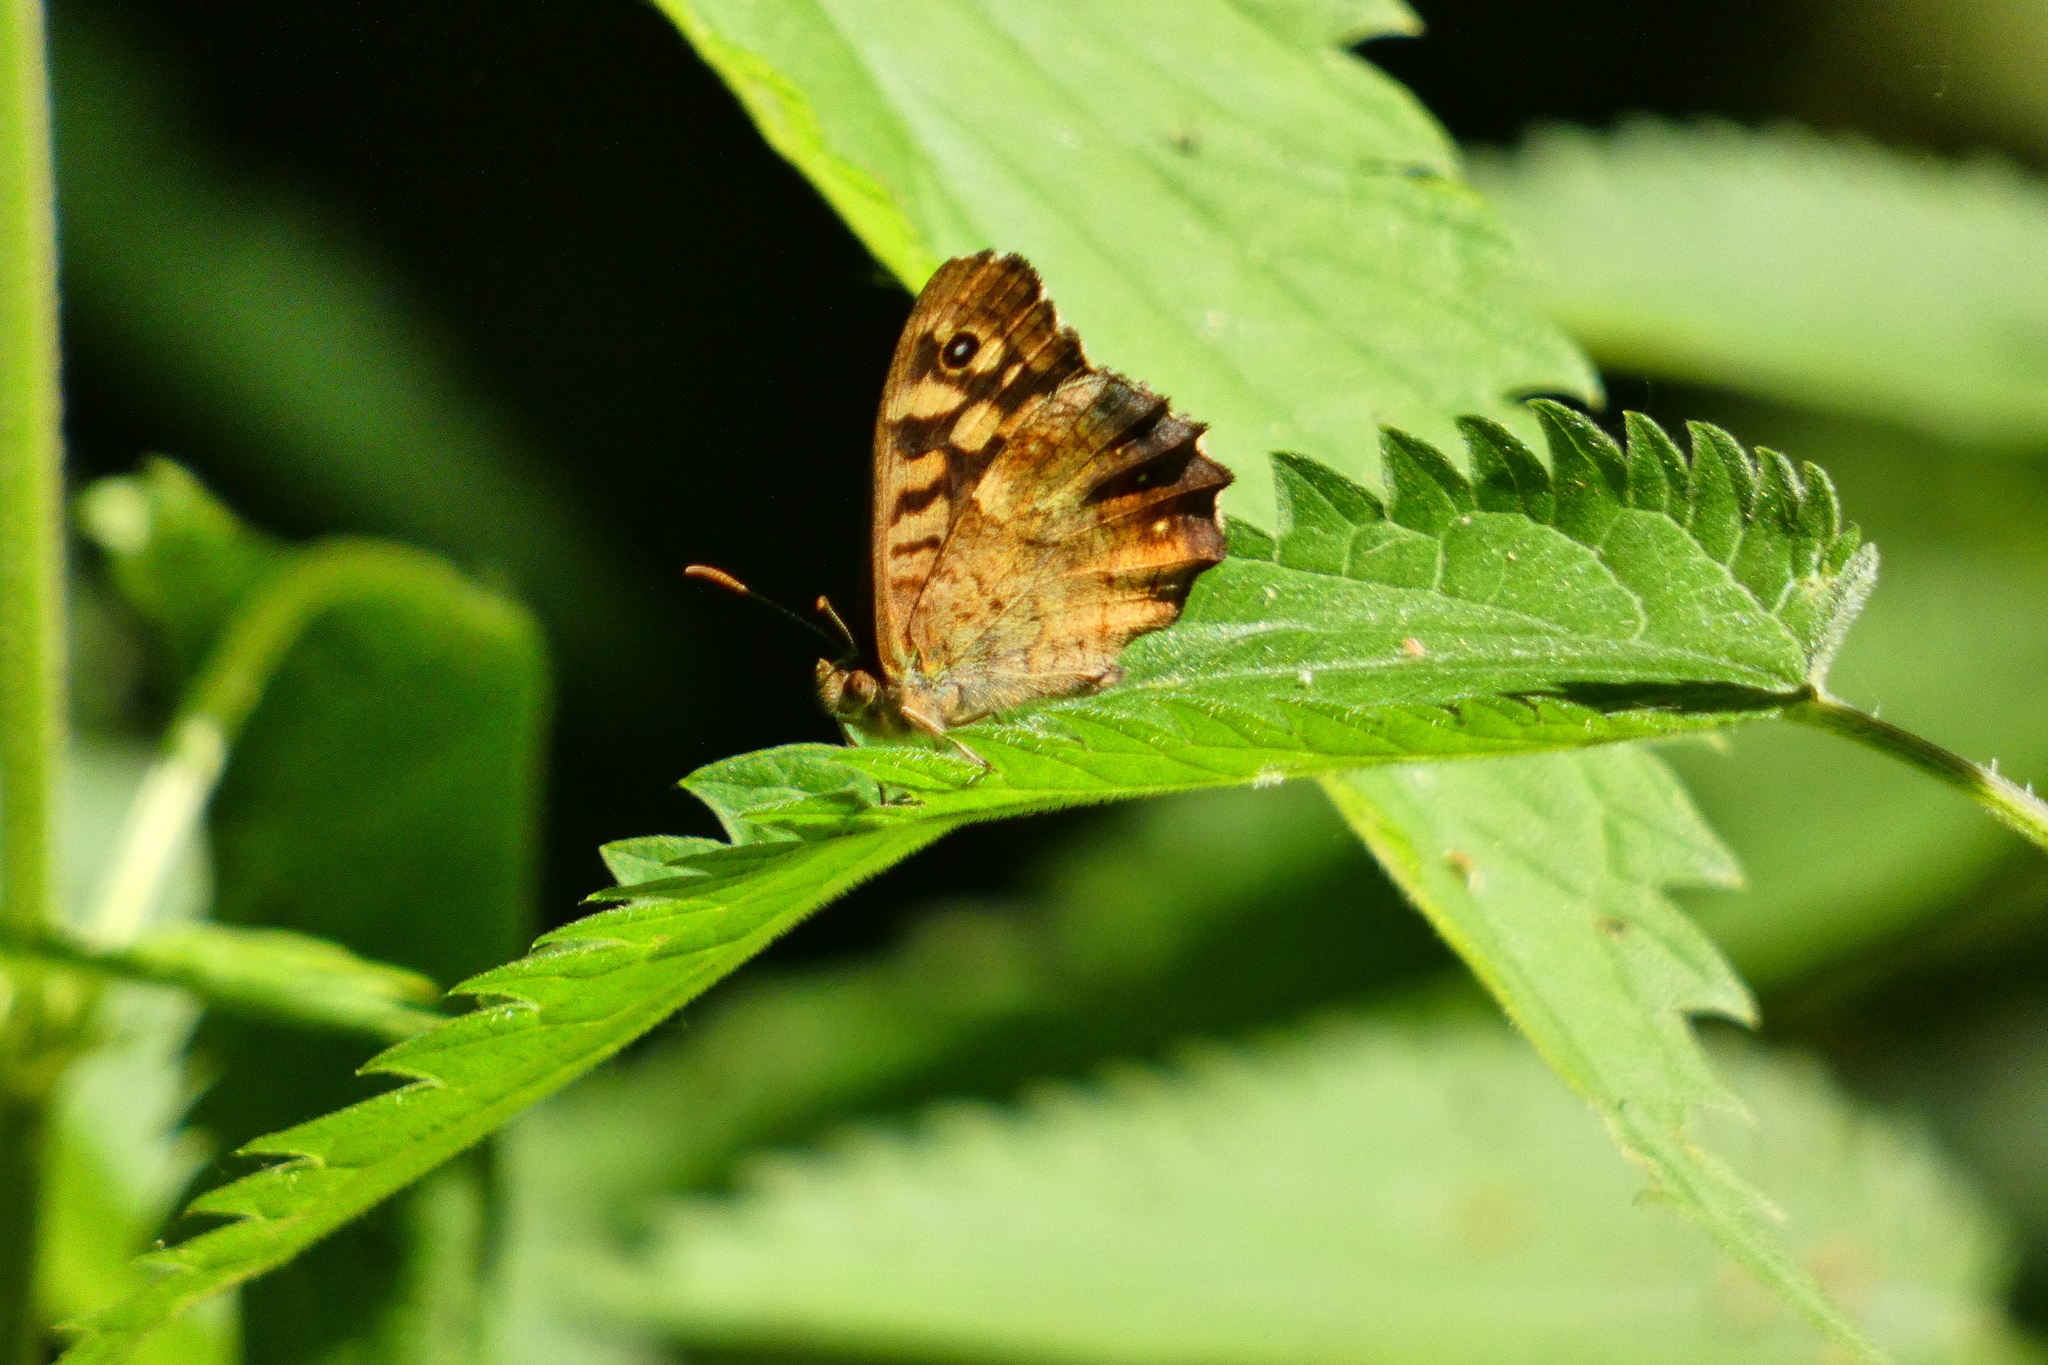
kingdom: Animalia
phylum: Arthropoda
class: Insecta
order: Lepidoptera
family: Nymphalidae
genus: Pararge
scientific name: Pararge aegeria
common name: Speckled wood
